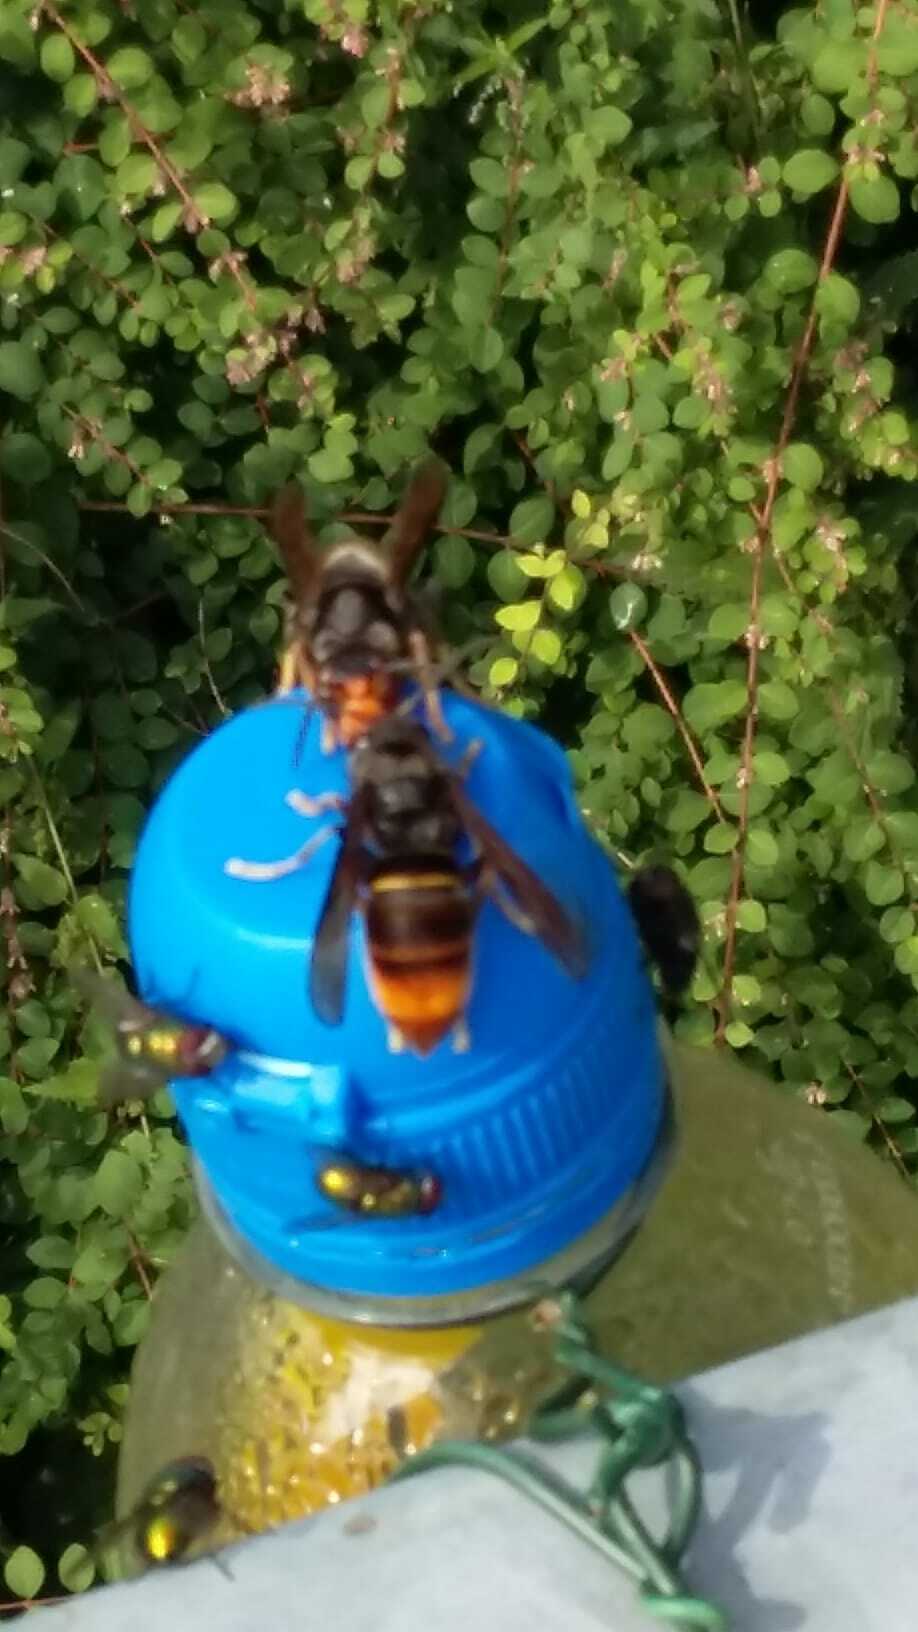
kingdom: Animalia
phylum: Arthropoda
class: Insecta
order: Hymenoptera
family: Vespidae
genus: Vespa
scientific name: Vespa velutina
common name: Asian hornet
